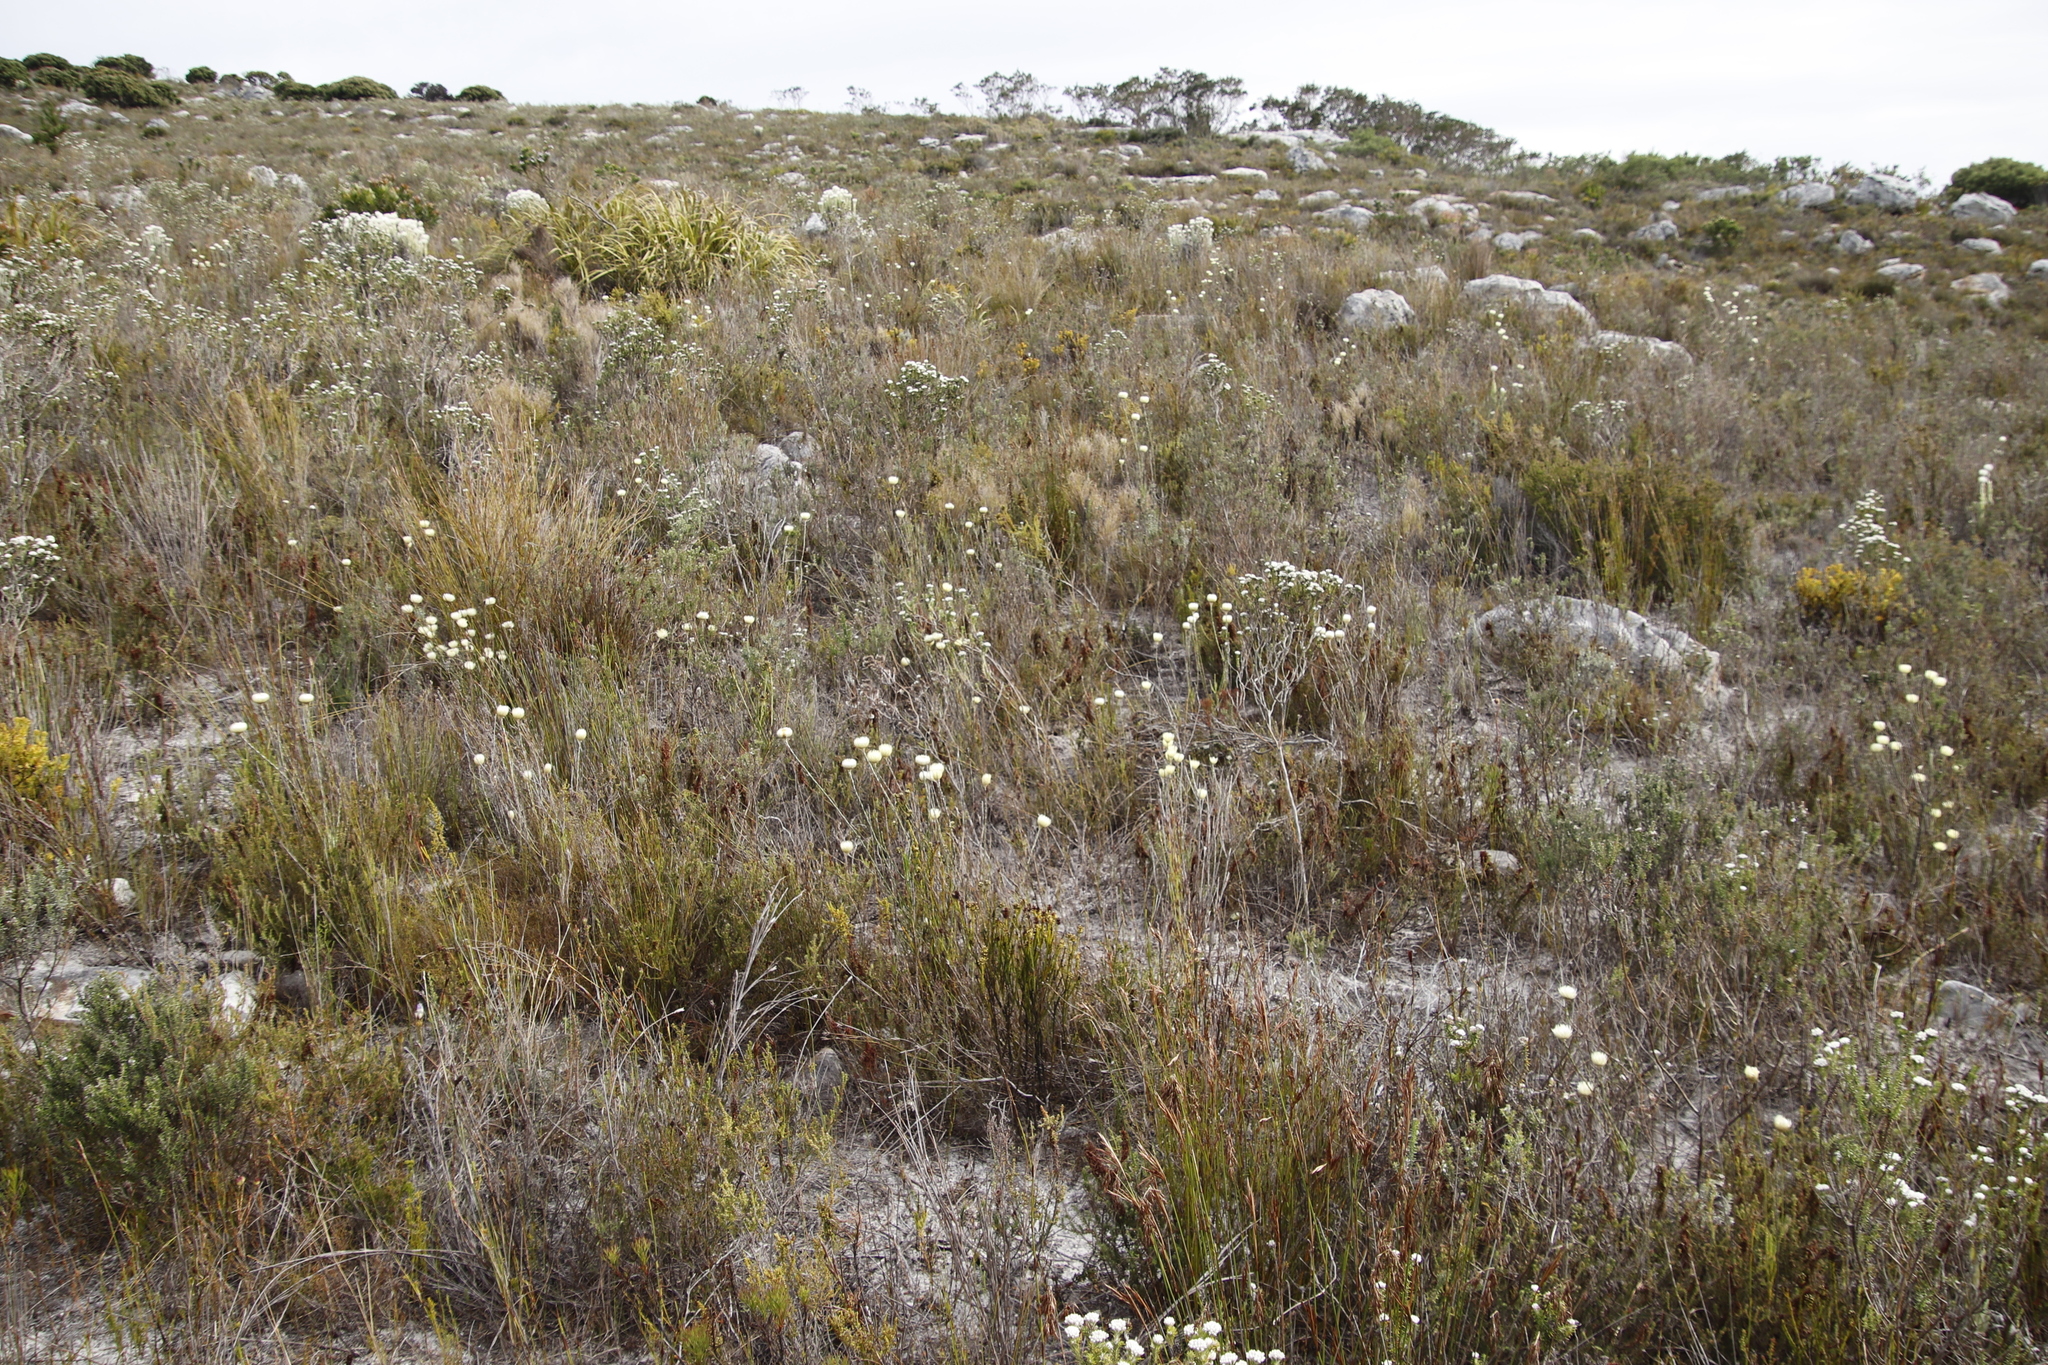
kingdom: Plantae
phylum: Tracheophyta
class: Magnoliopsida
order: Asterales
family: Asteraceae
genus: Edmondia
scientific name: Edmondia sesamoides
